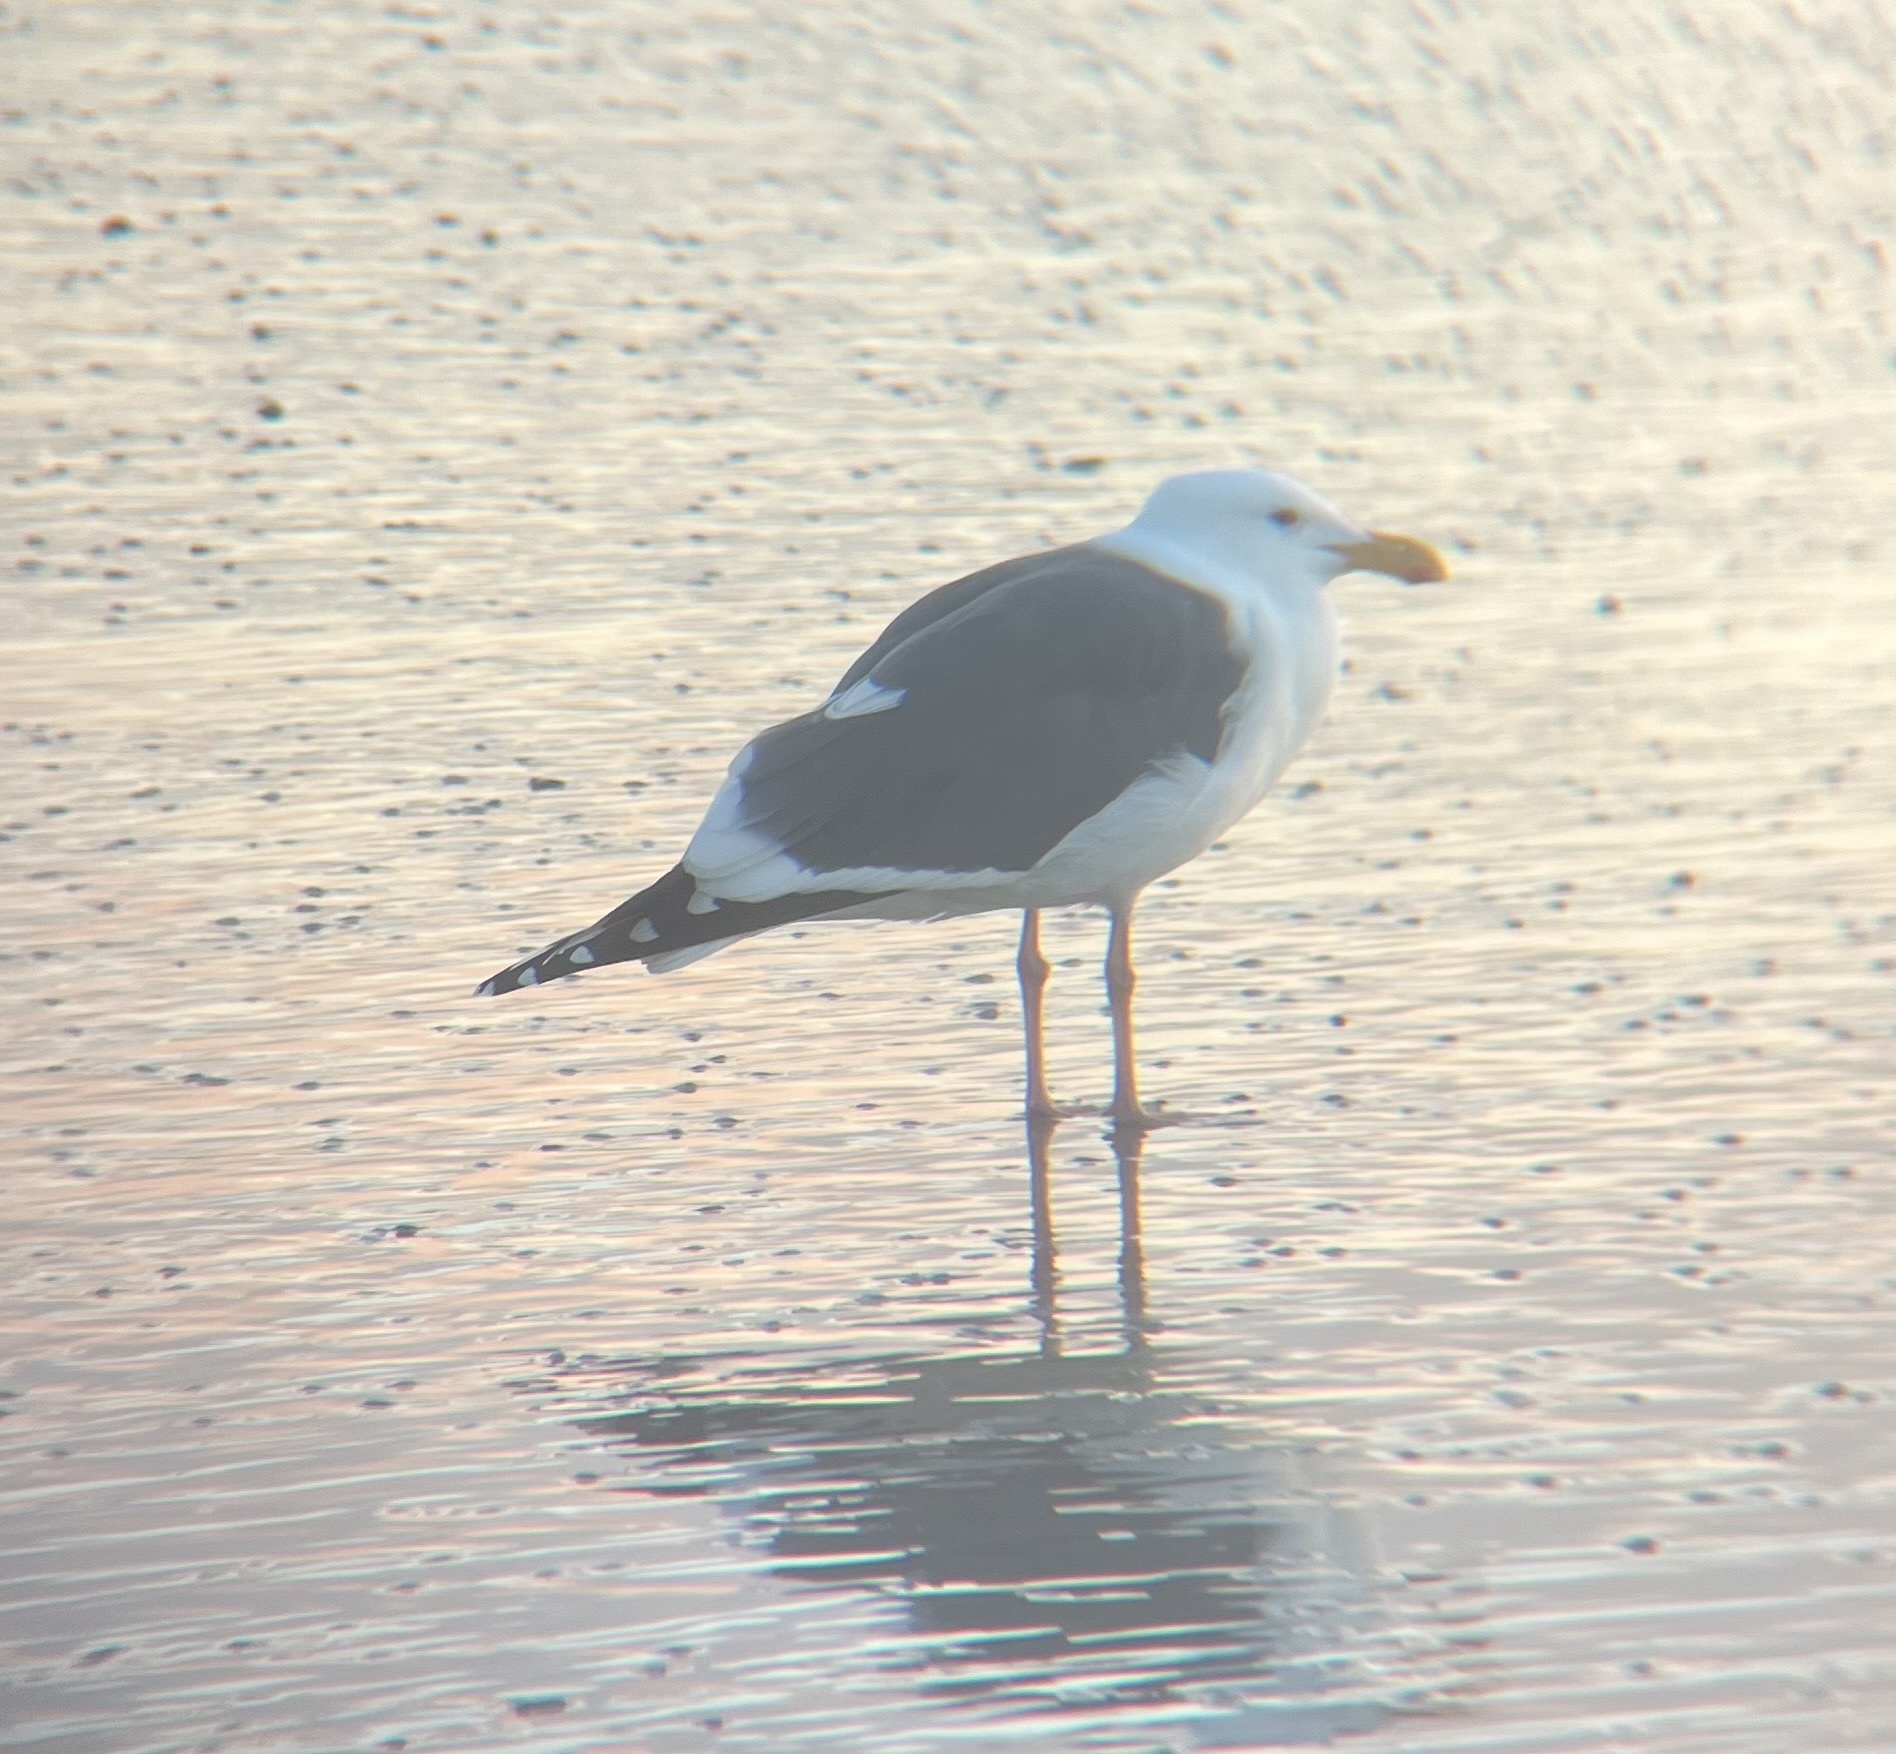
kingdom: Animalia
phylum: Chordata
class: Aves
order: Charadriiformes
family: Laridae
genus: Larus
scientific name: Larus occidentalis
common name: Western gull
